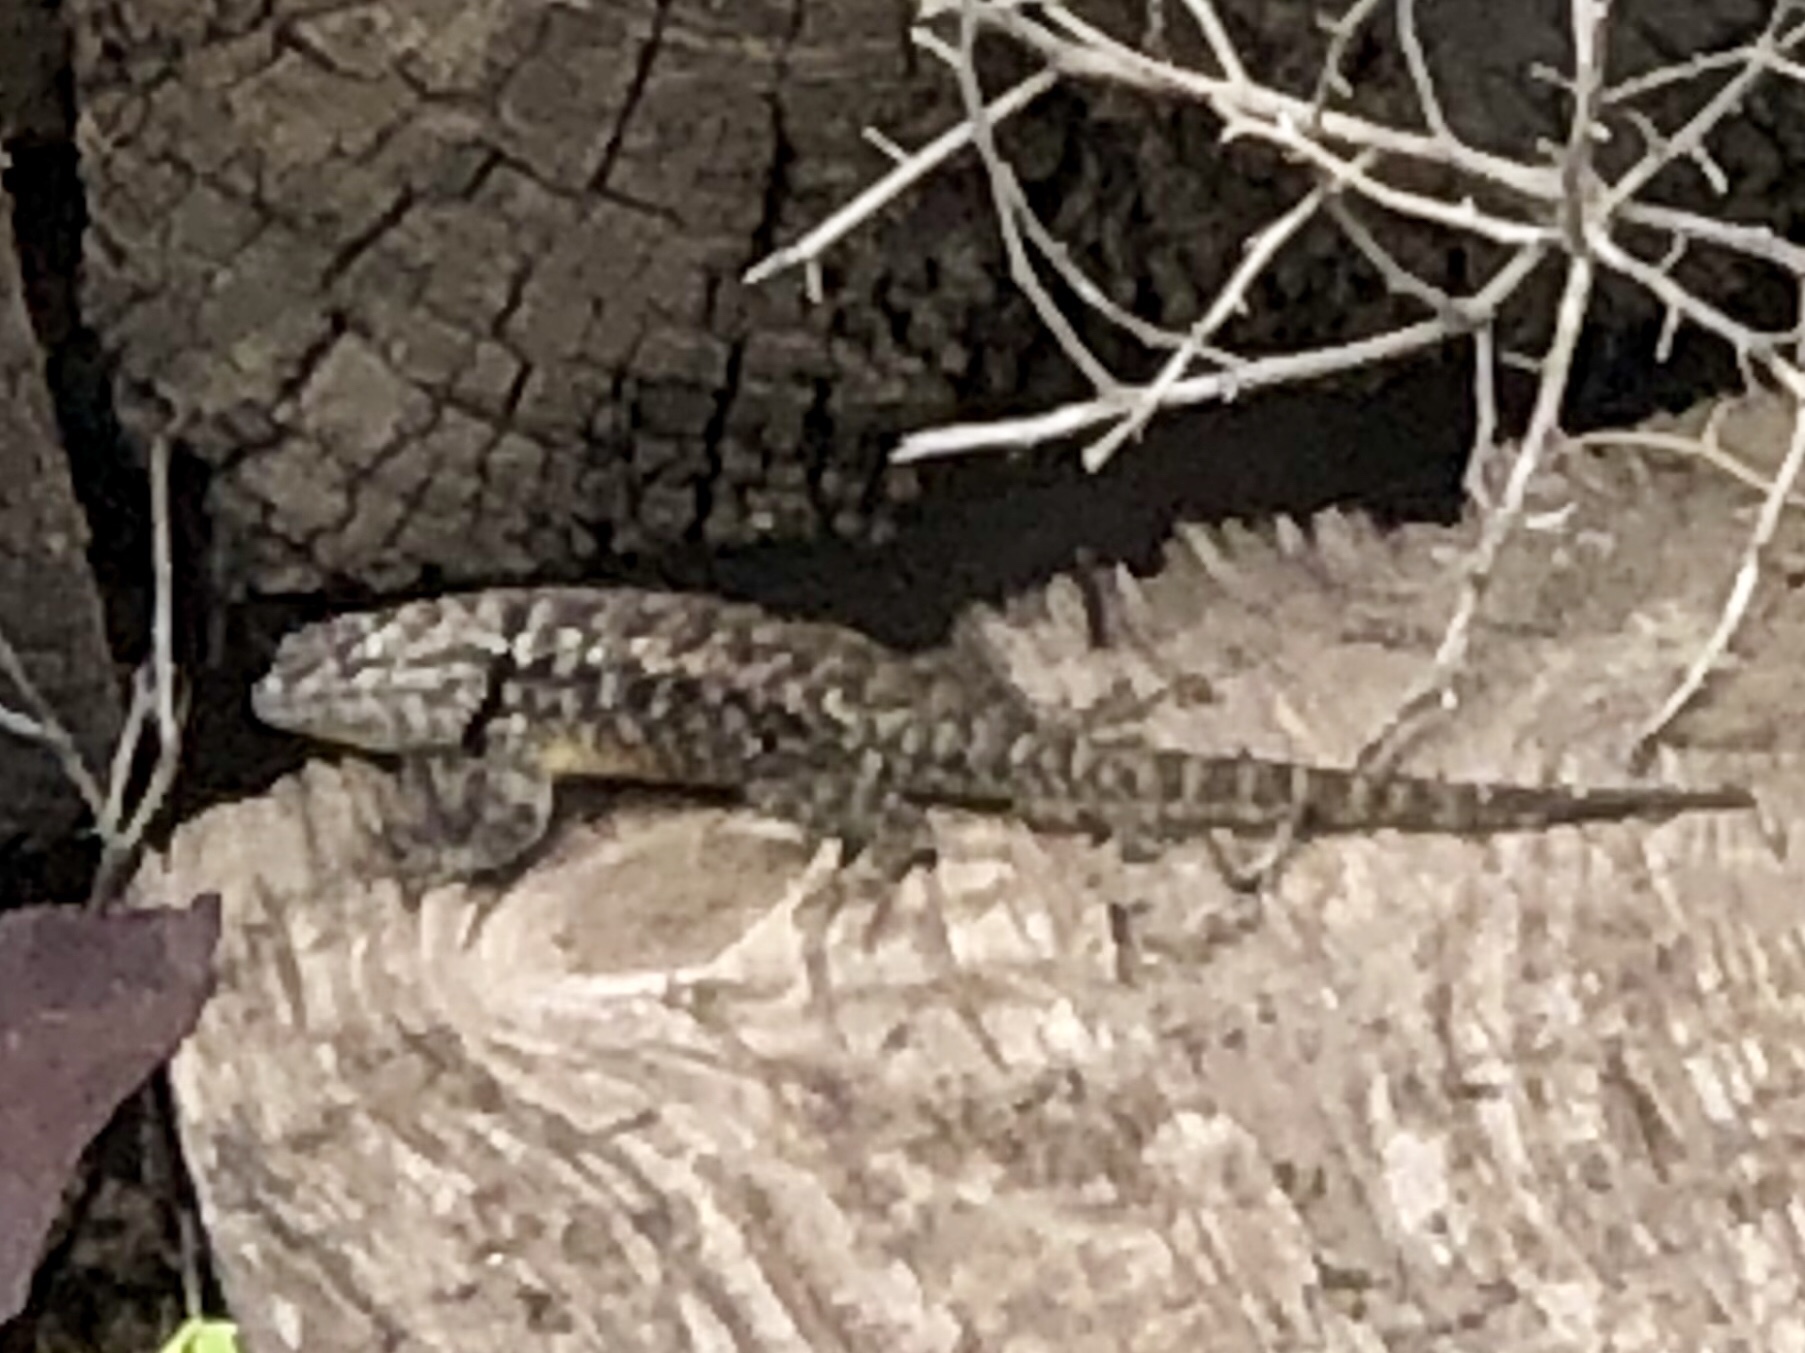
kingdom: Animalia
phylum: Chordata
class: Squamata
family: Phrynosomatidae
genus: Sceloporus
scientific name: Sceloporus bimaculosus
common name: Twin-spotted spiny lizard
